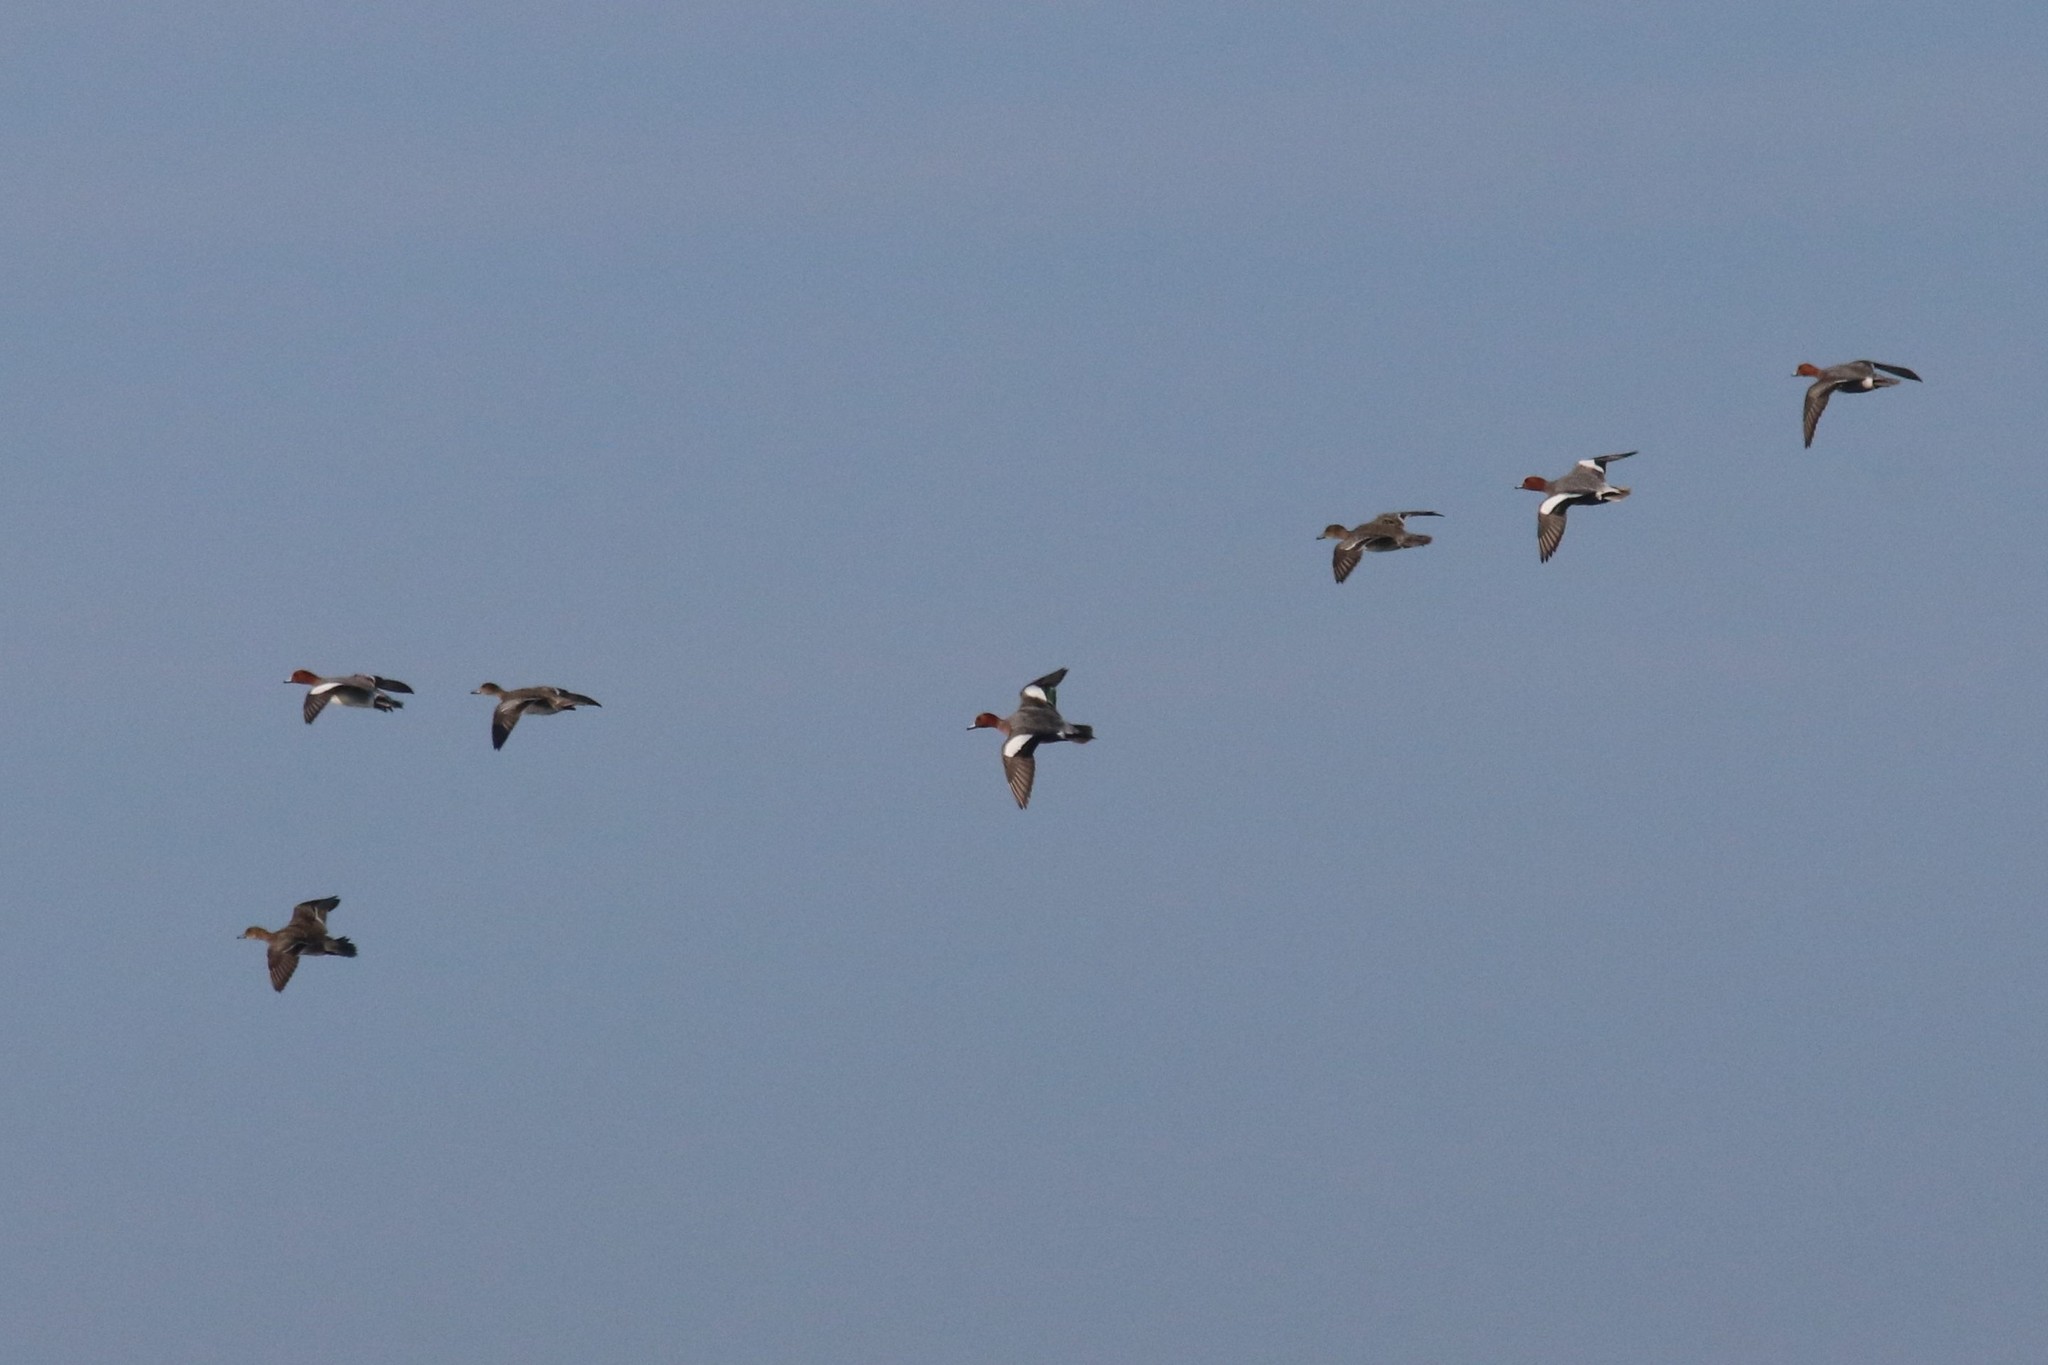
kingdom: Animalia
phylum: Chordata
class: Aves
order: Anseriformes
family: Anatidae
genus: Mareca
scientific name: Mareca penelope
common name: Eurasian wigeon
